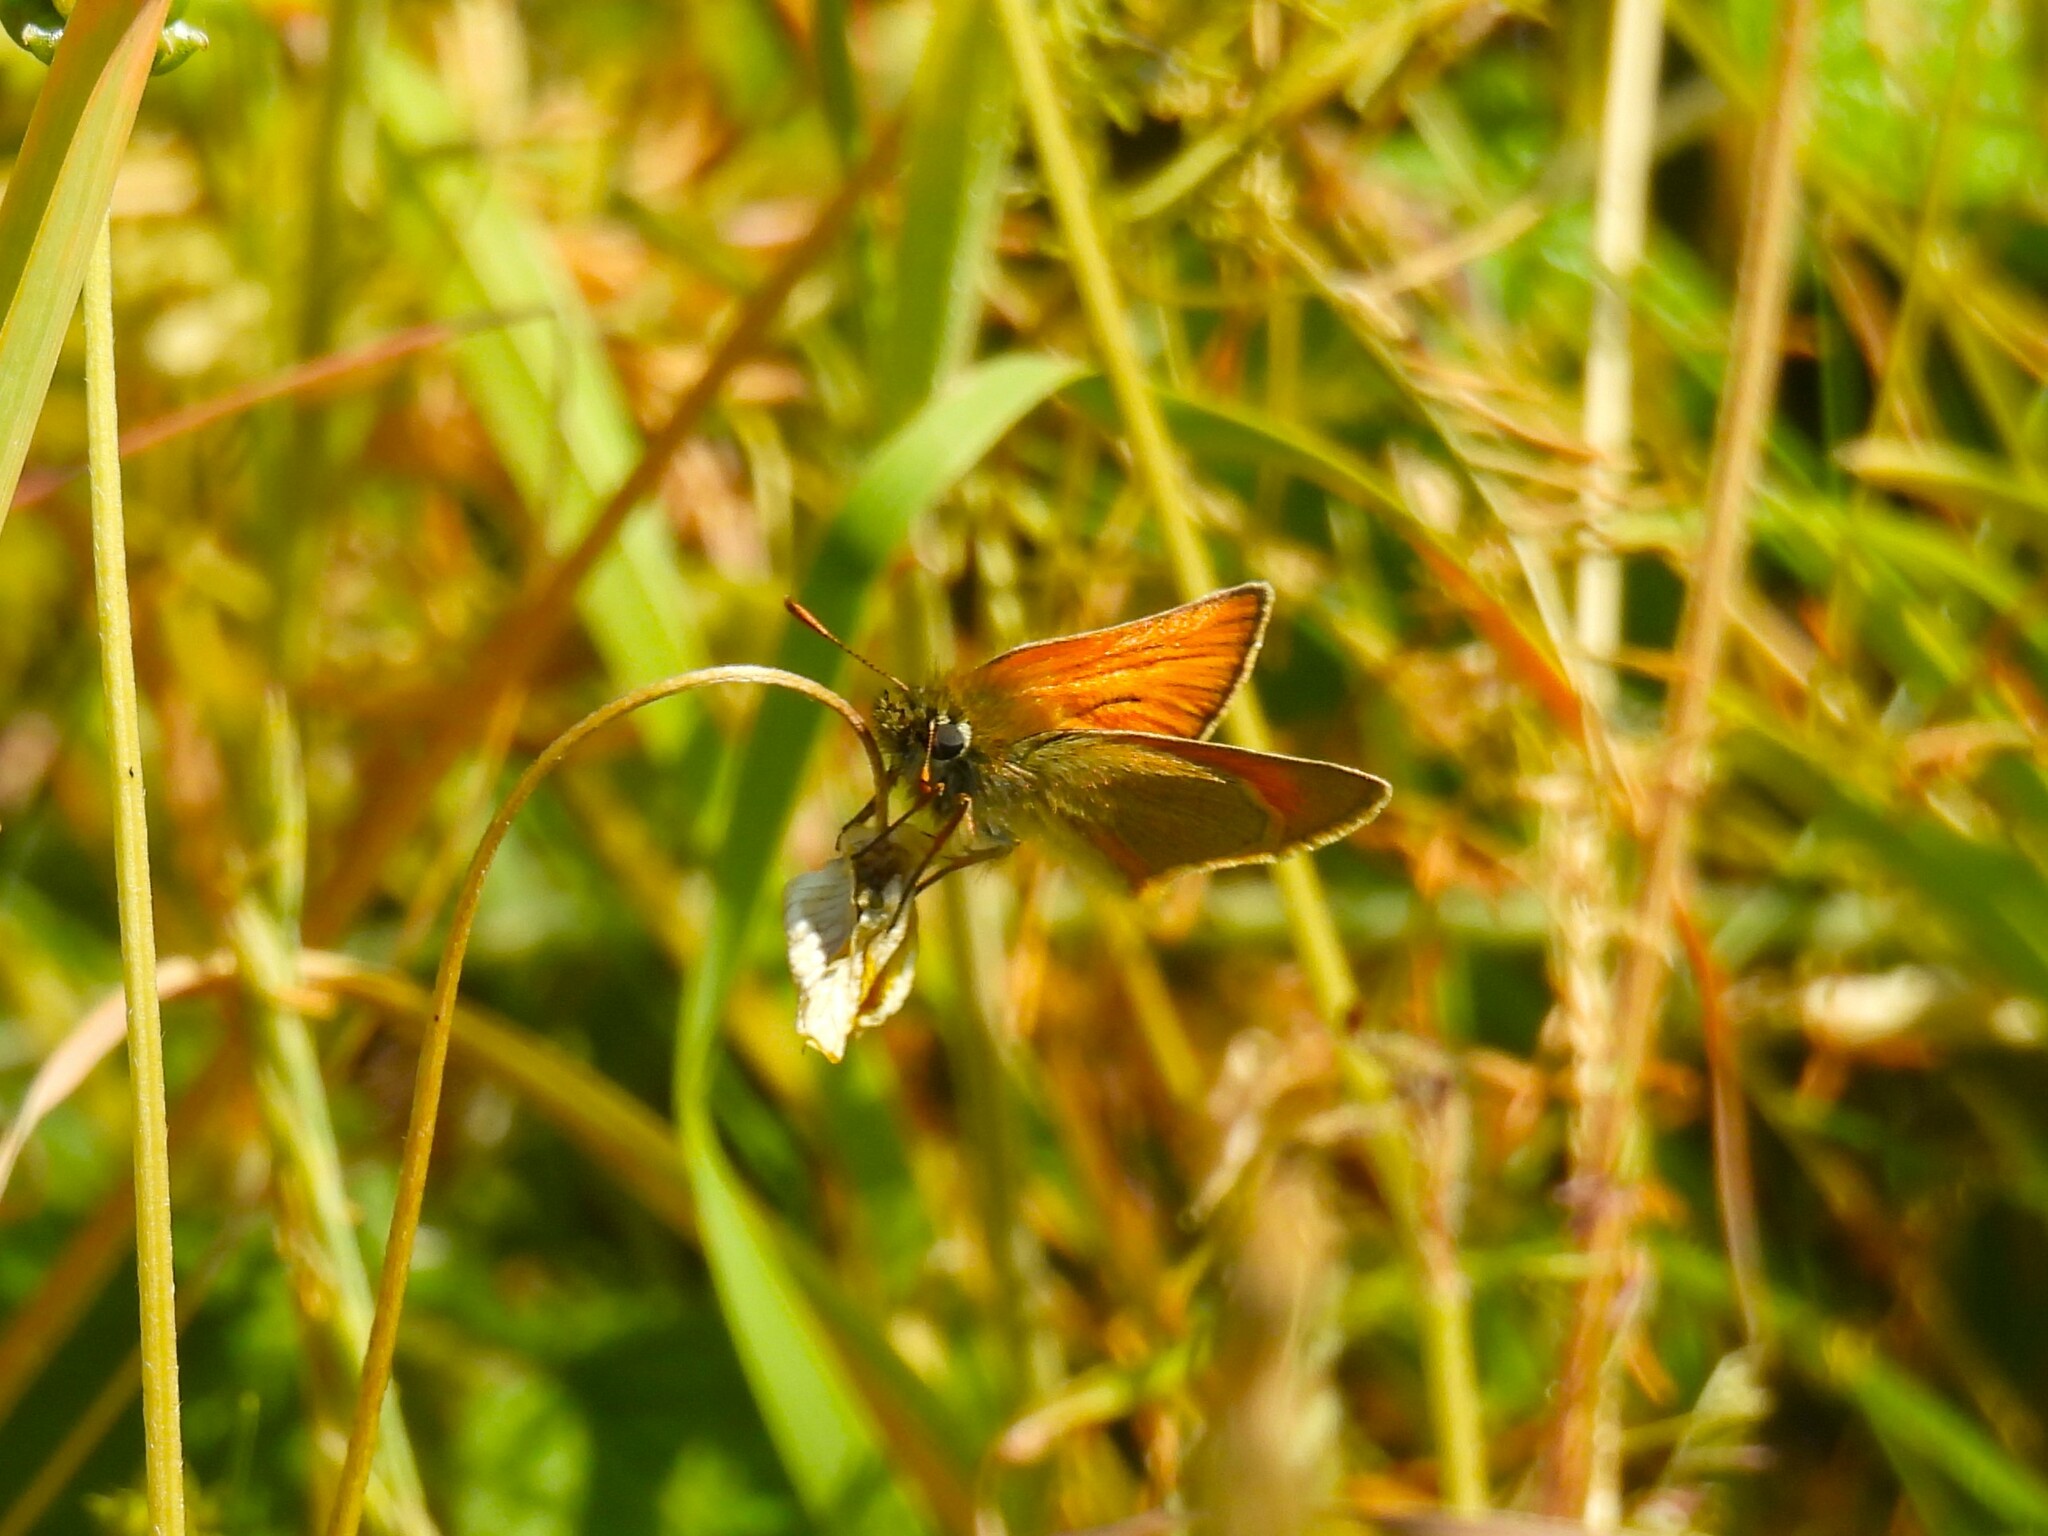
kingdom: Animalia
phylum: Arthropoda
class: Insecta
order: Lepidoptera
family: Hesperiidae
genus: Thymelicus
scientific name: Thymelicus sylvestris
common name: Small skipper
